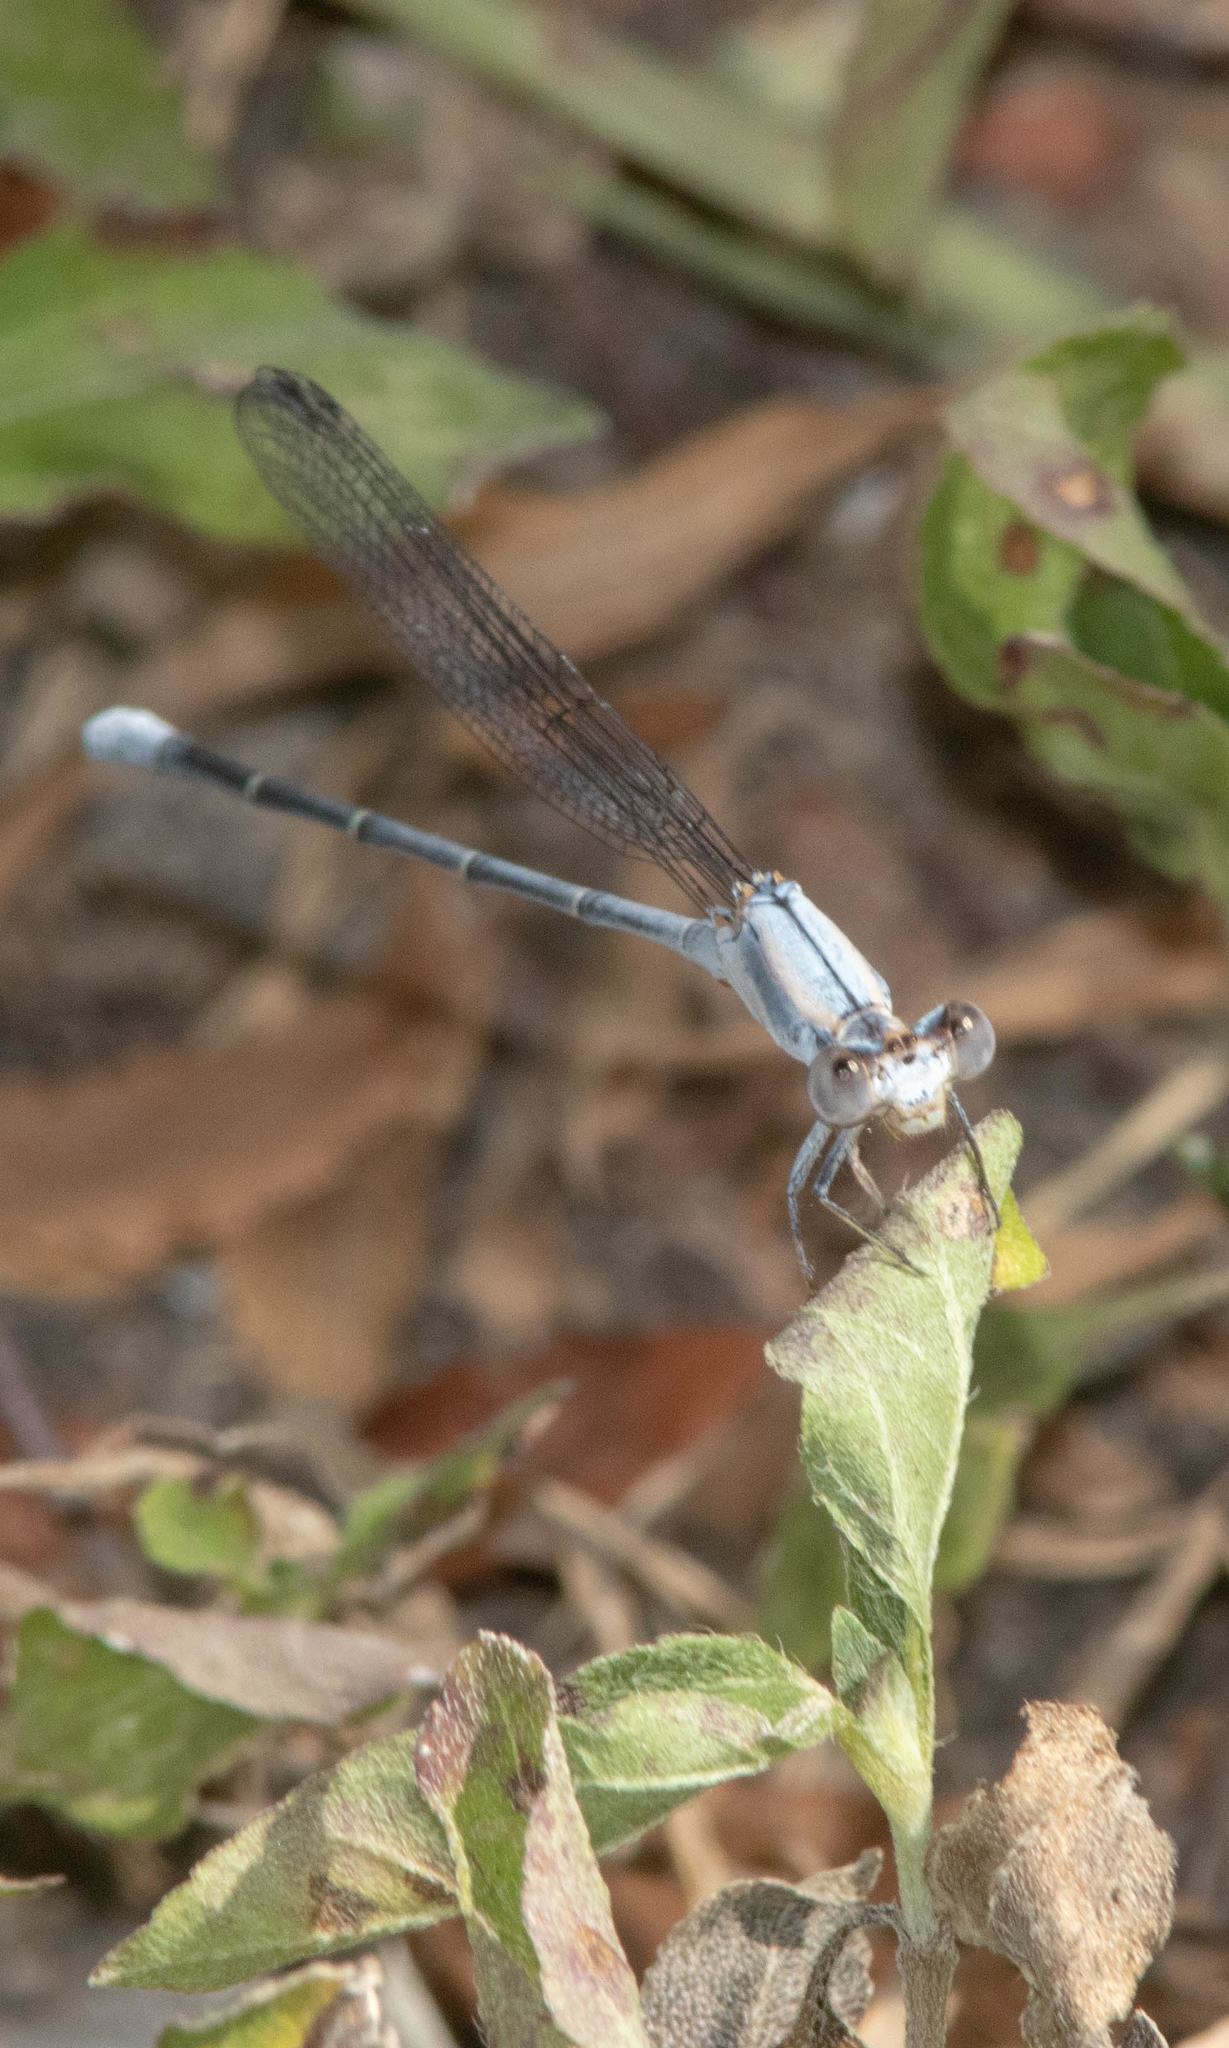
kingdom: Animalia
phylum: Arthropoda
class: Insecta
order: Odonata
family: Coenagrionidae
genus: Argia
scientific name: Argia moesta
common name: Powdered dancer
